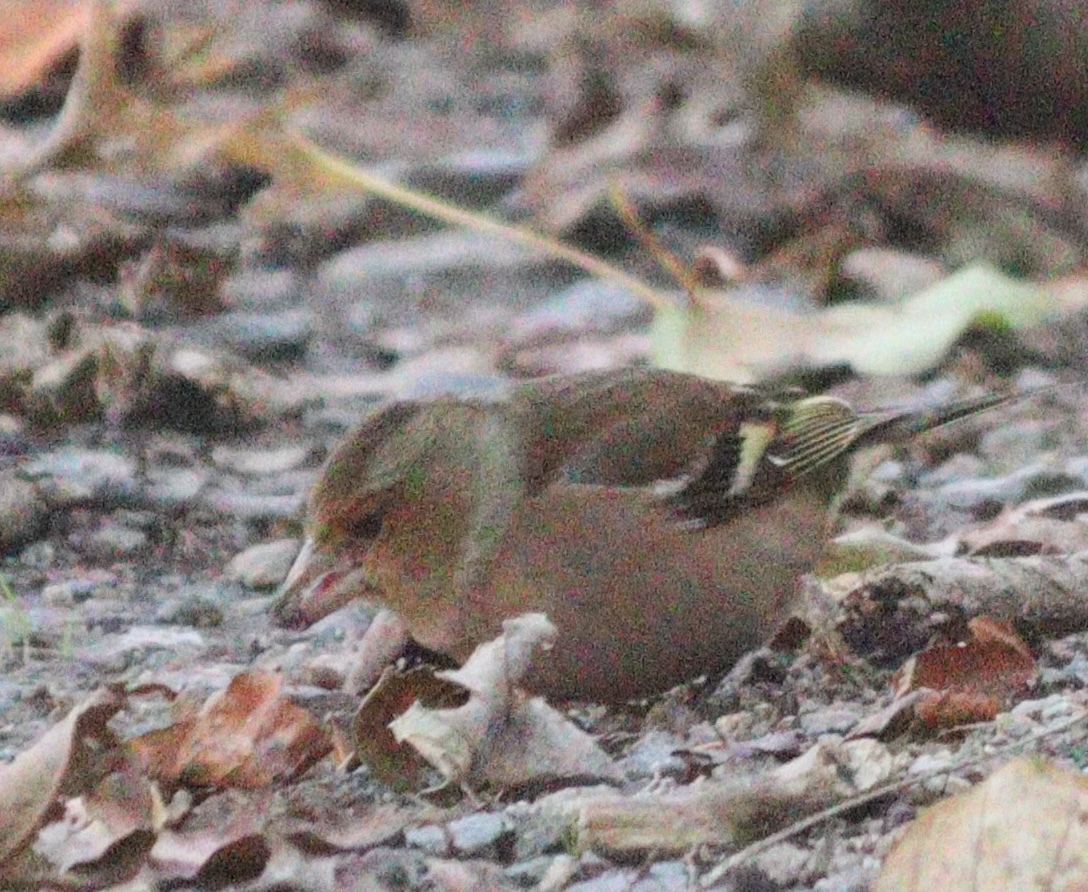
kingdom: Animalia
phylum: Chordata
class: Aves
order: Passeriformes
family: Fringillidae
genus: Fringilla
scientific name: Fringilla coelebs
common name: Common chaffinch
